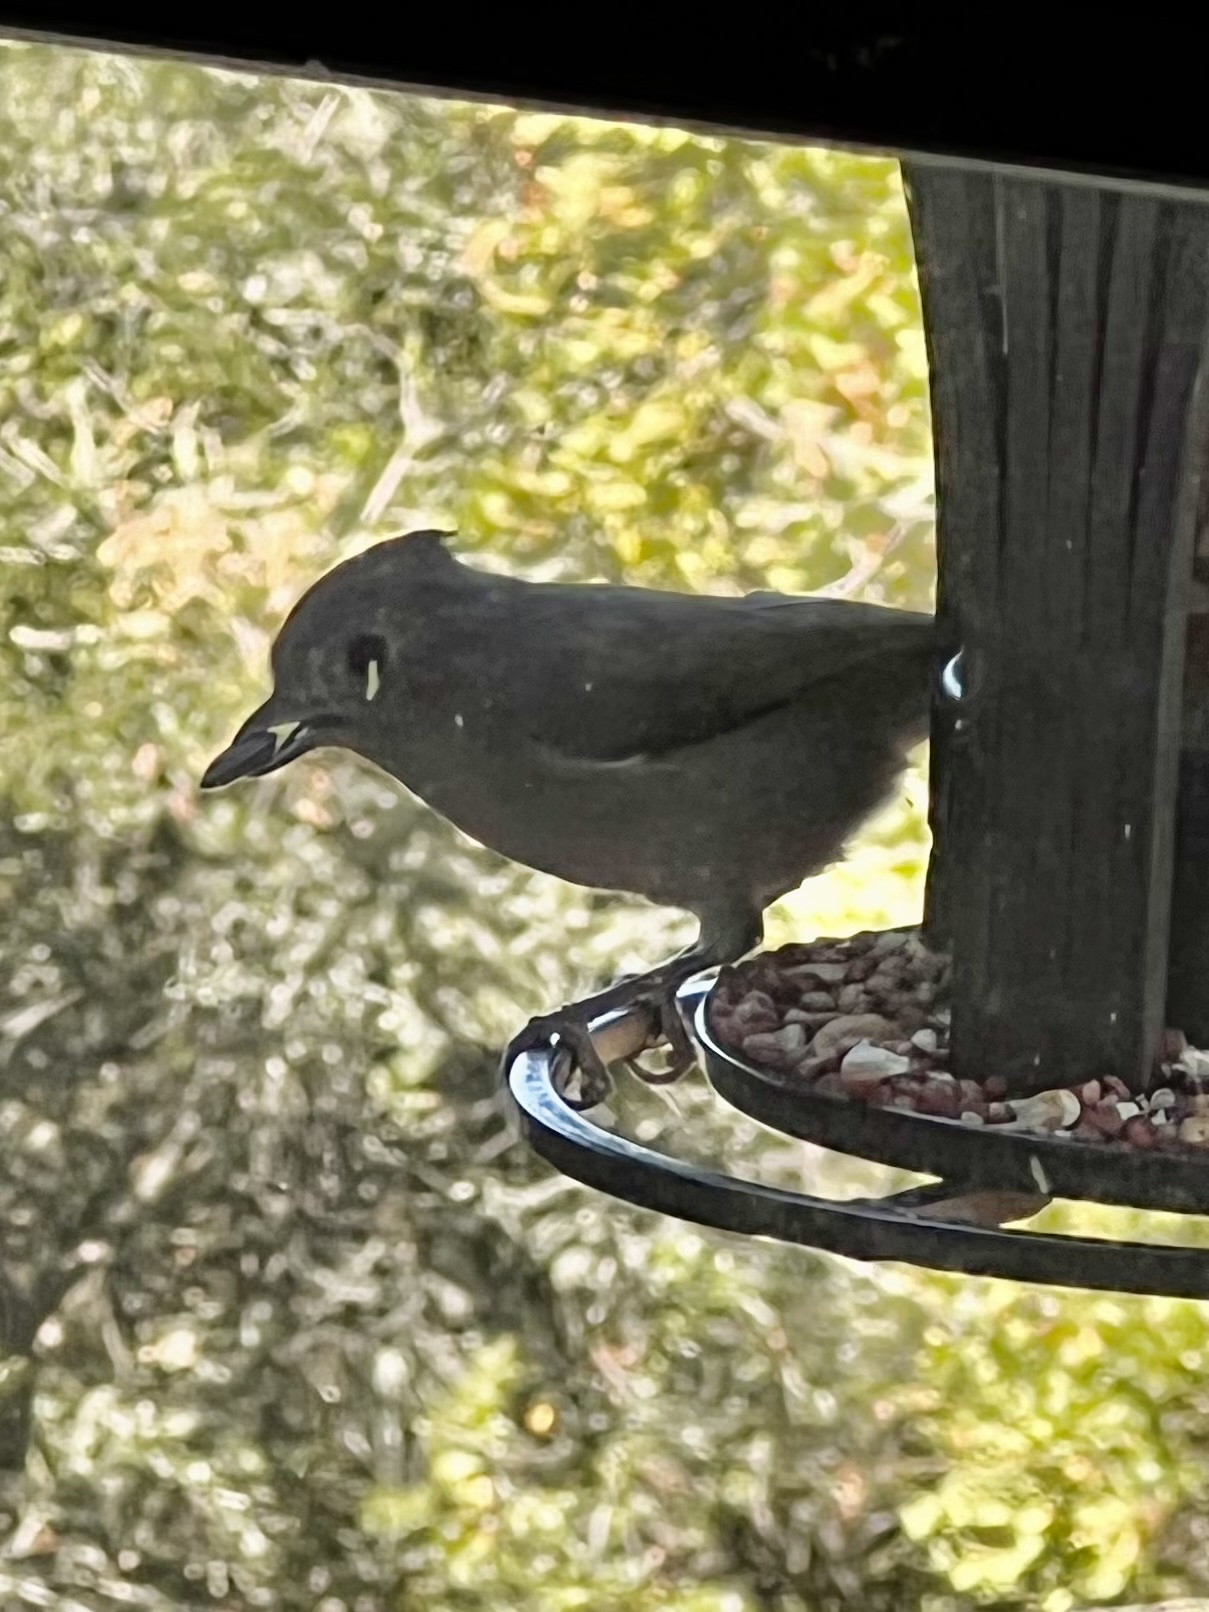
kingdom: Animalia
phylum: Chordata
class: Aves
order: Passeriformes
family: Paridae
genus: Baeolophus
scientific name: Baeolophus inornatus
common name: Oak titmouse
